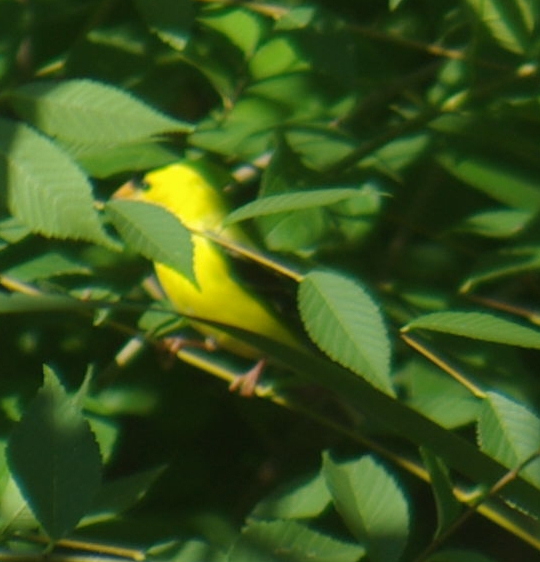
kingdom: Animalia
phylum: Chordata
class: Aves
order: Passeriformes
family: Fringillidae
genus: Spinus
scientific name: Spinus tristis
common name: American goldfinch
